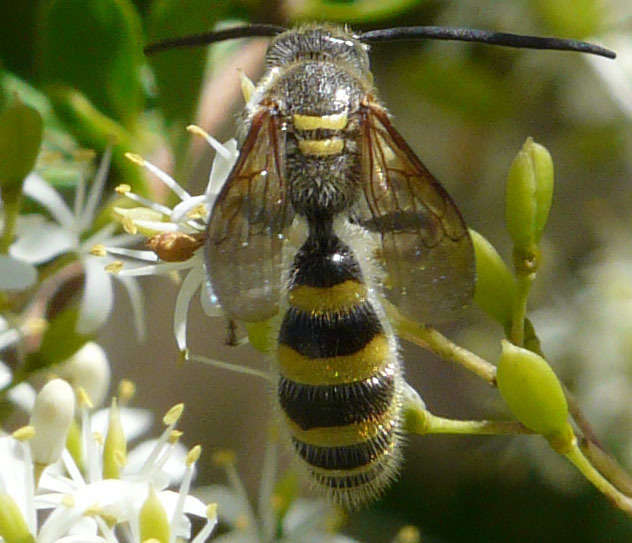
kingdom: Animalia
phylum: Arthropoda
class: Insecta
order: Hymenoptera
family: Scoliidae
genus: Radumeris
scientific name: Radumeris tasmaniensis
